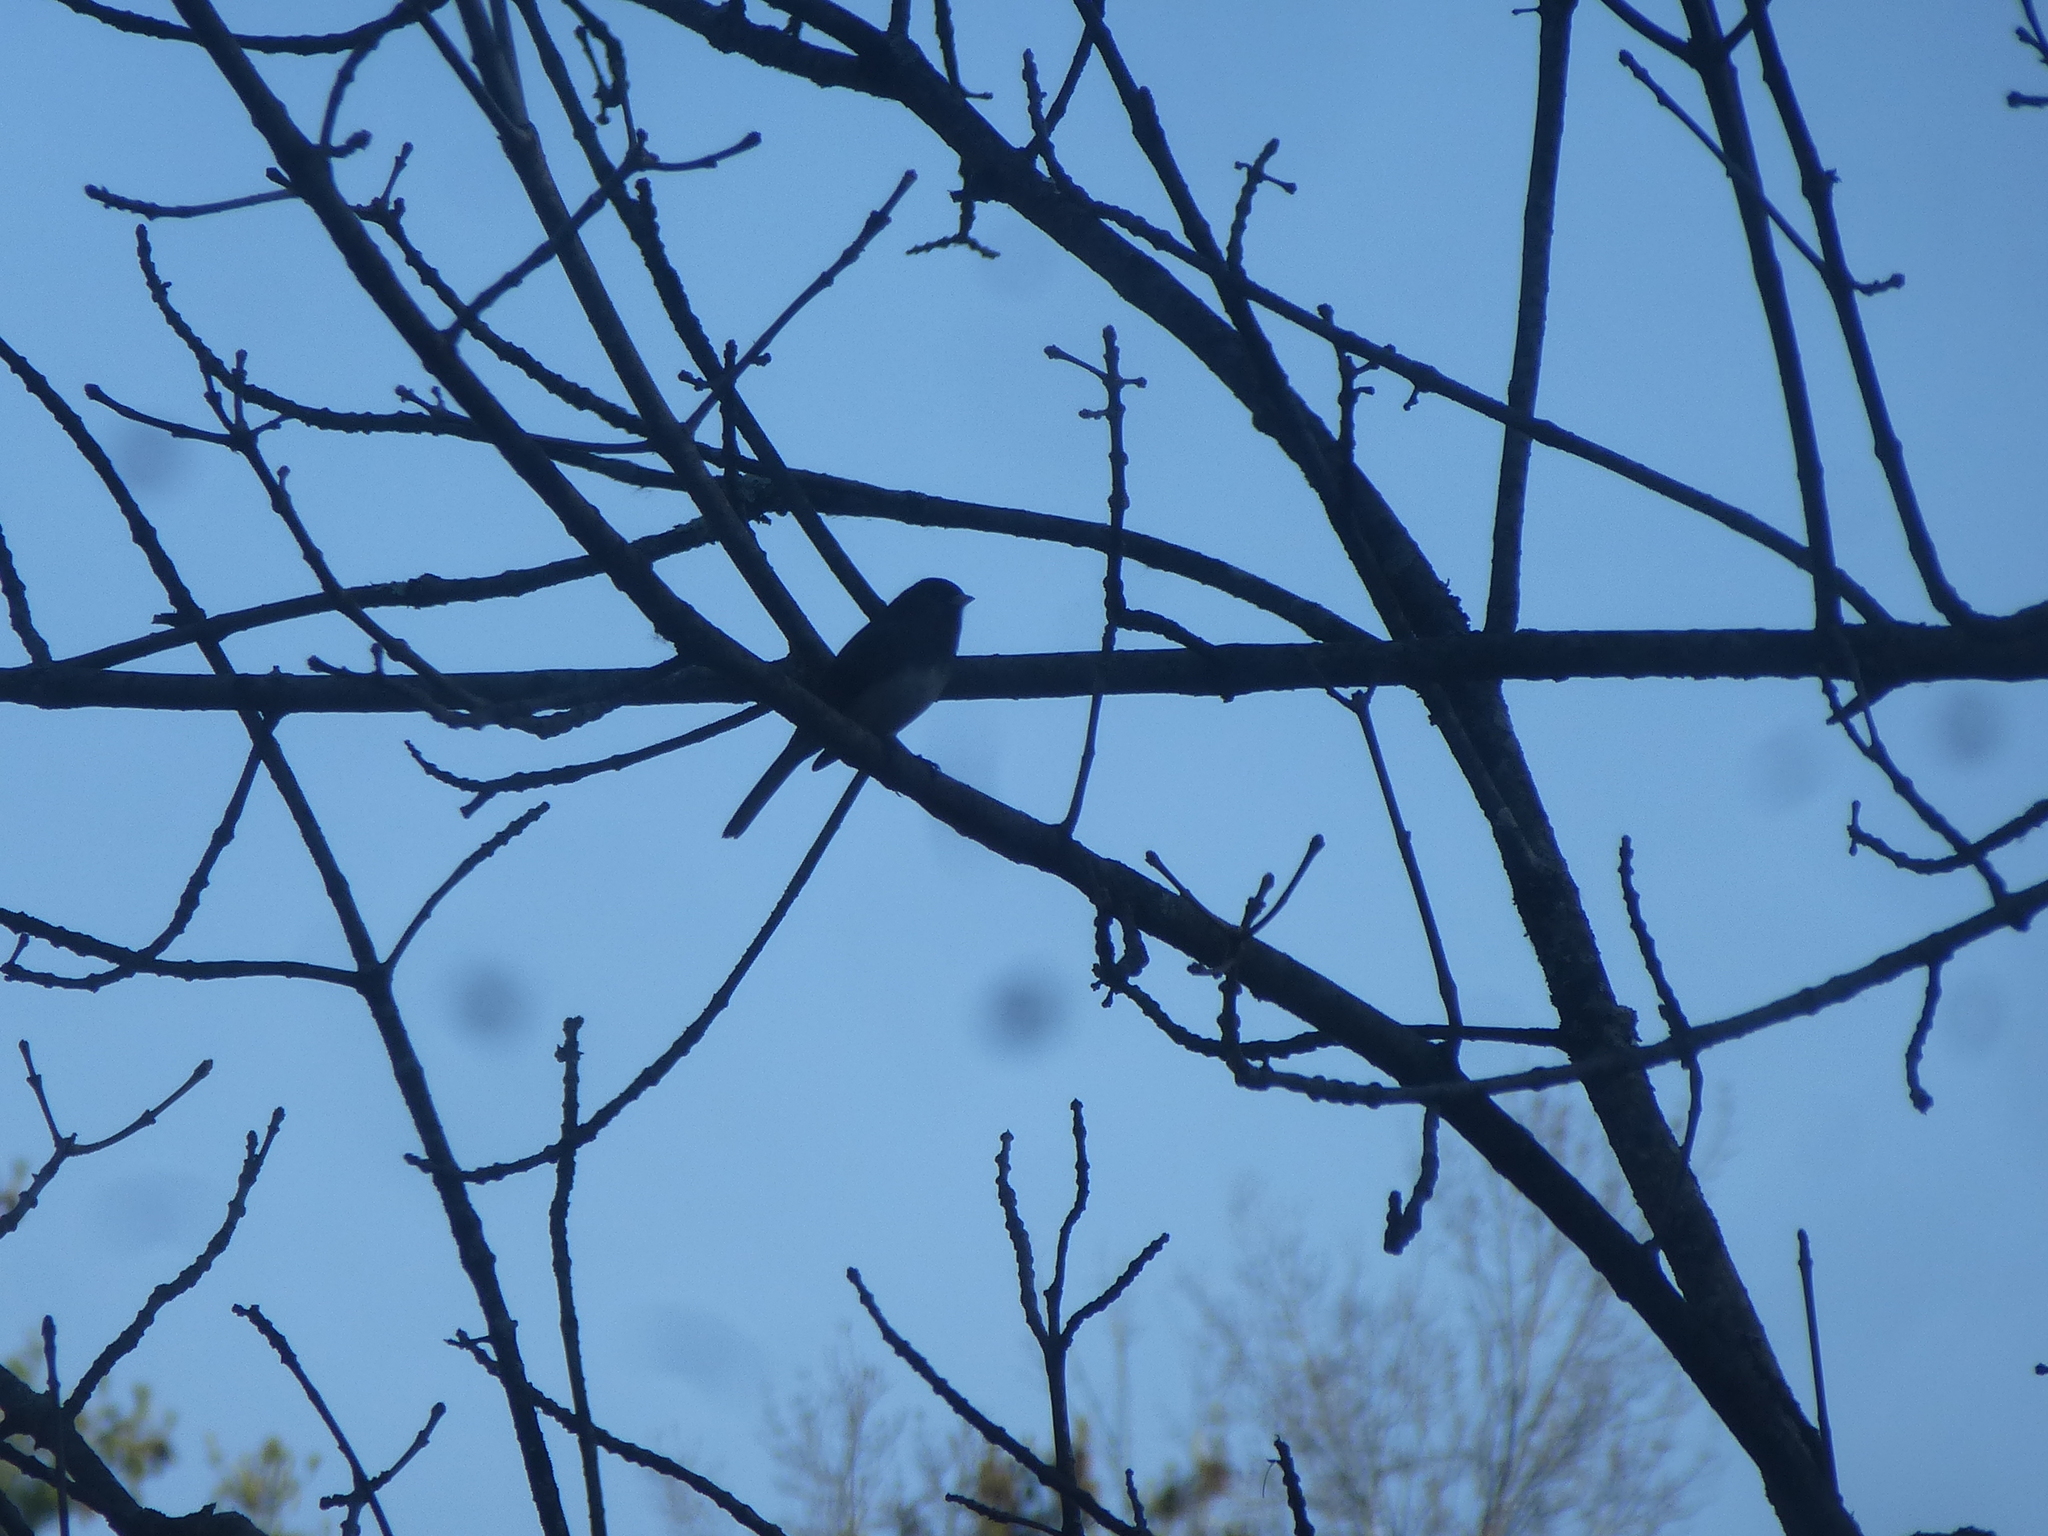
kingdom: Animalia
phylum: Chordata
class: Aves
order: Passeriformes
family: Passerellidae
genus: Junco
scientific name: Junco hyemalis
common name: Dark-eyed junco
